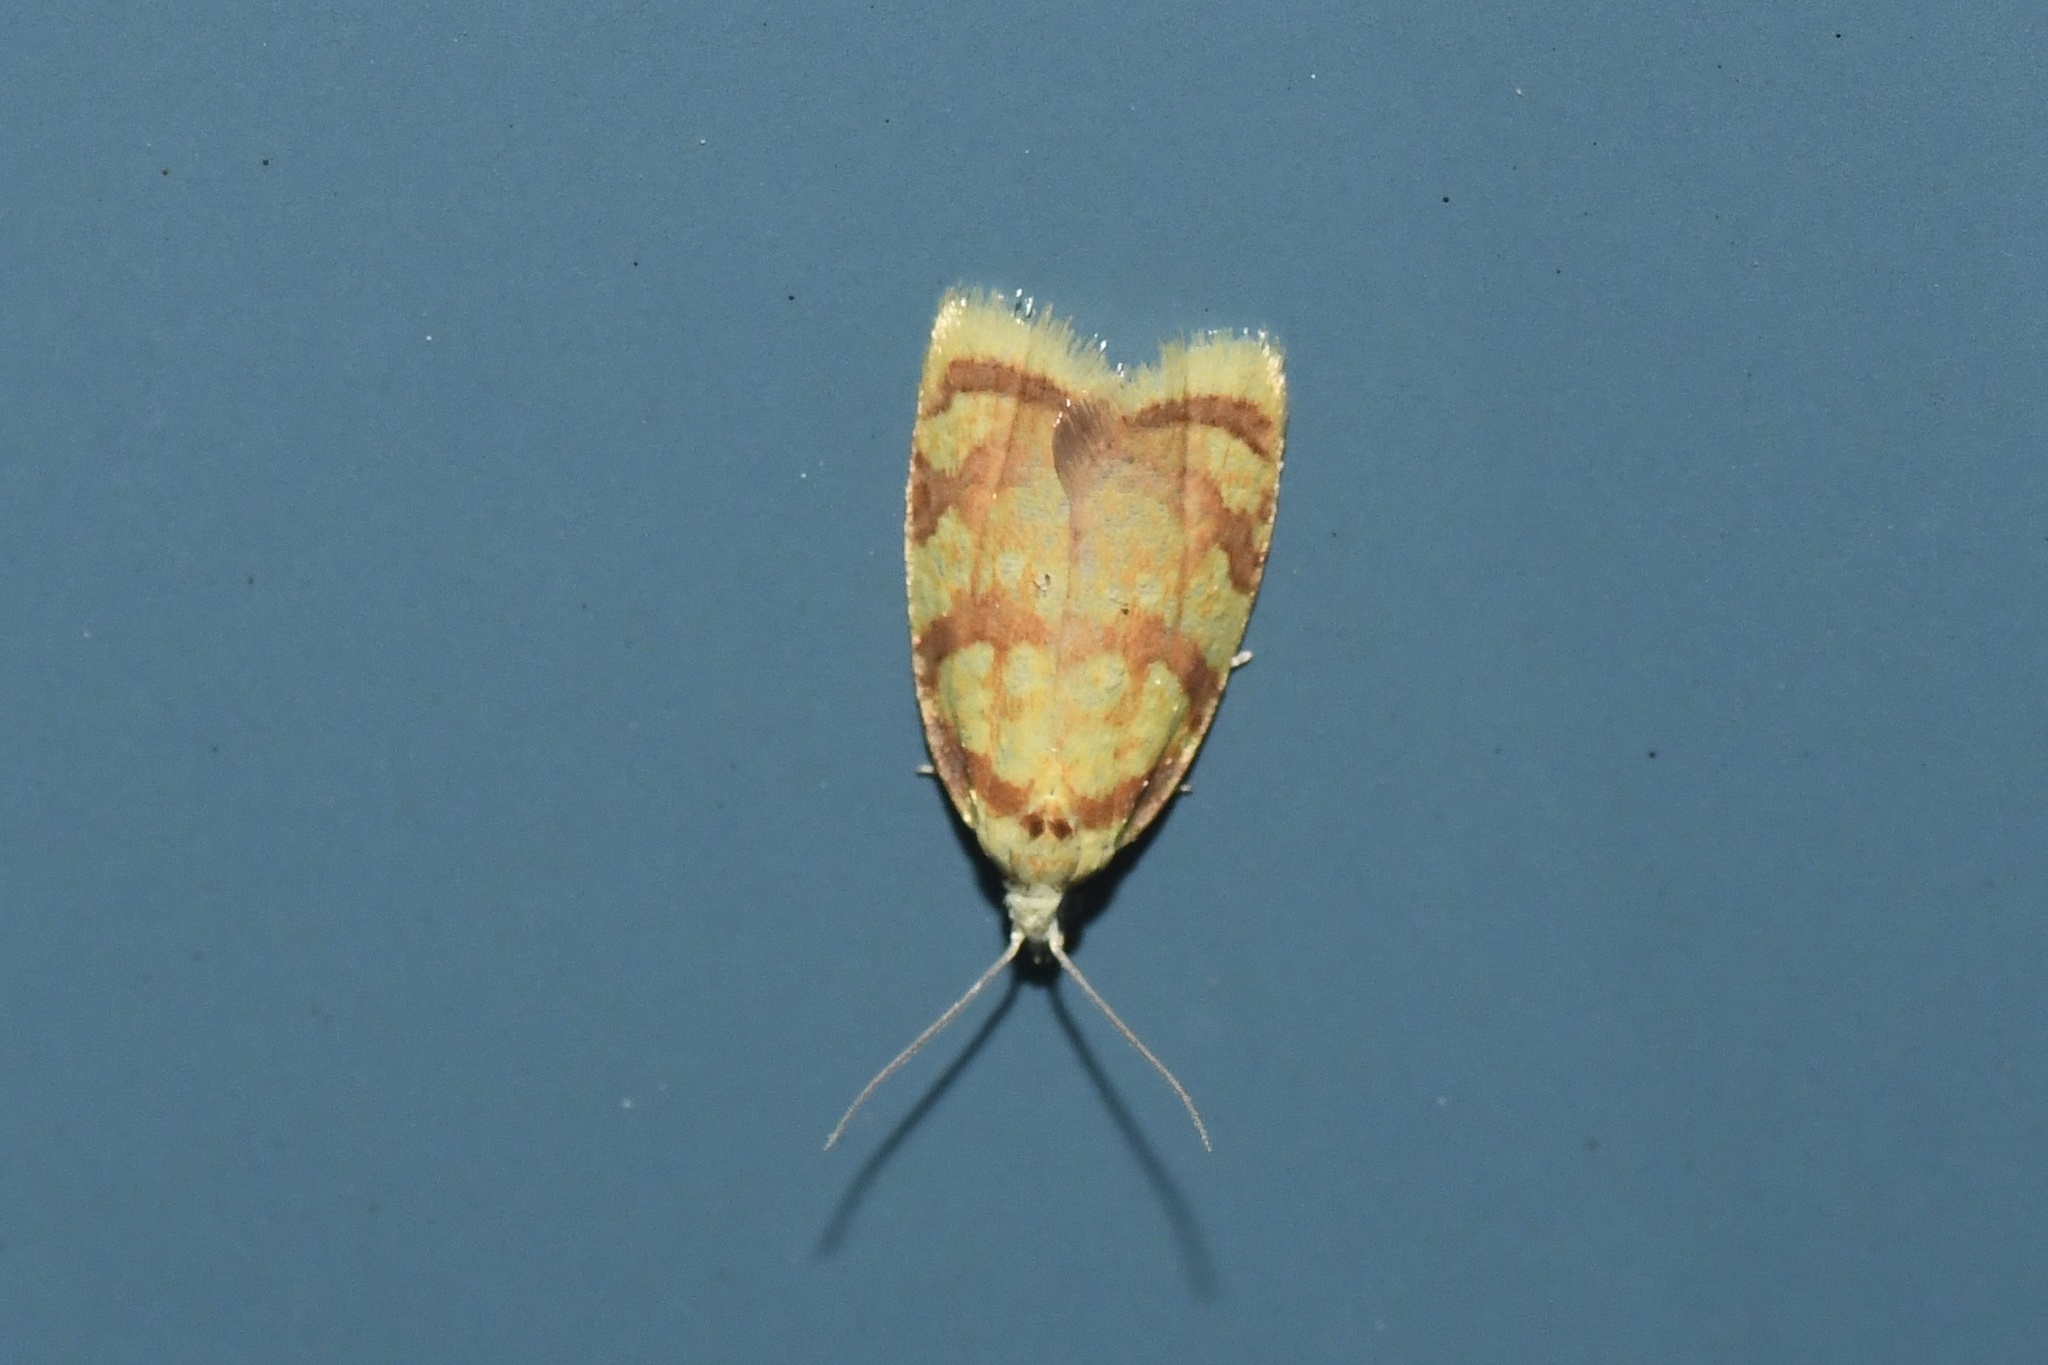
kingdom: Animalia
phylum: Arthropoda
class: Insecta
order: Lepidoptera
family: Tortricidae
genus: Acleris
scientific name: Acleris albicomana
